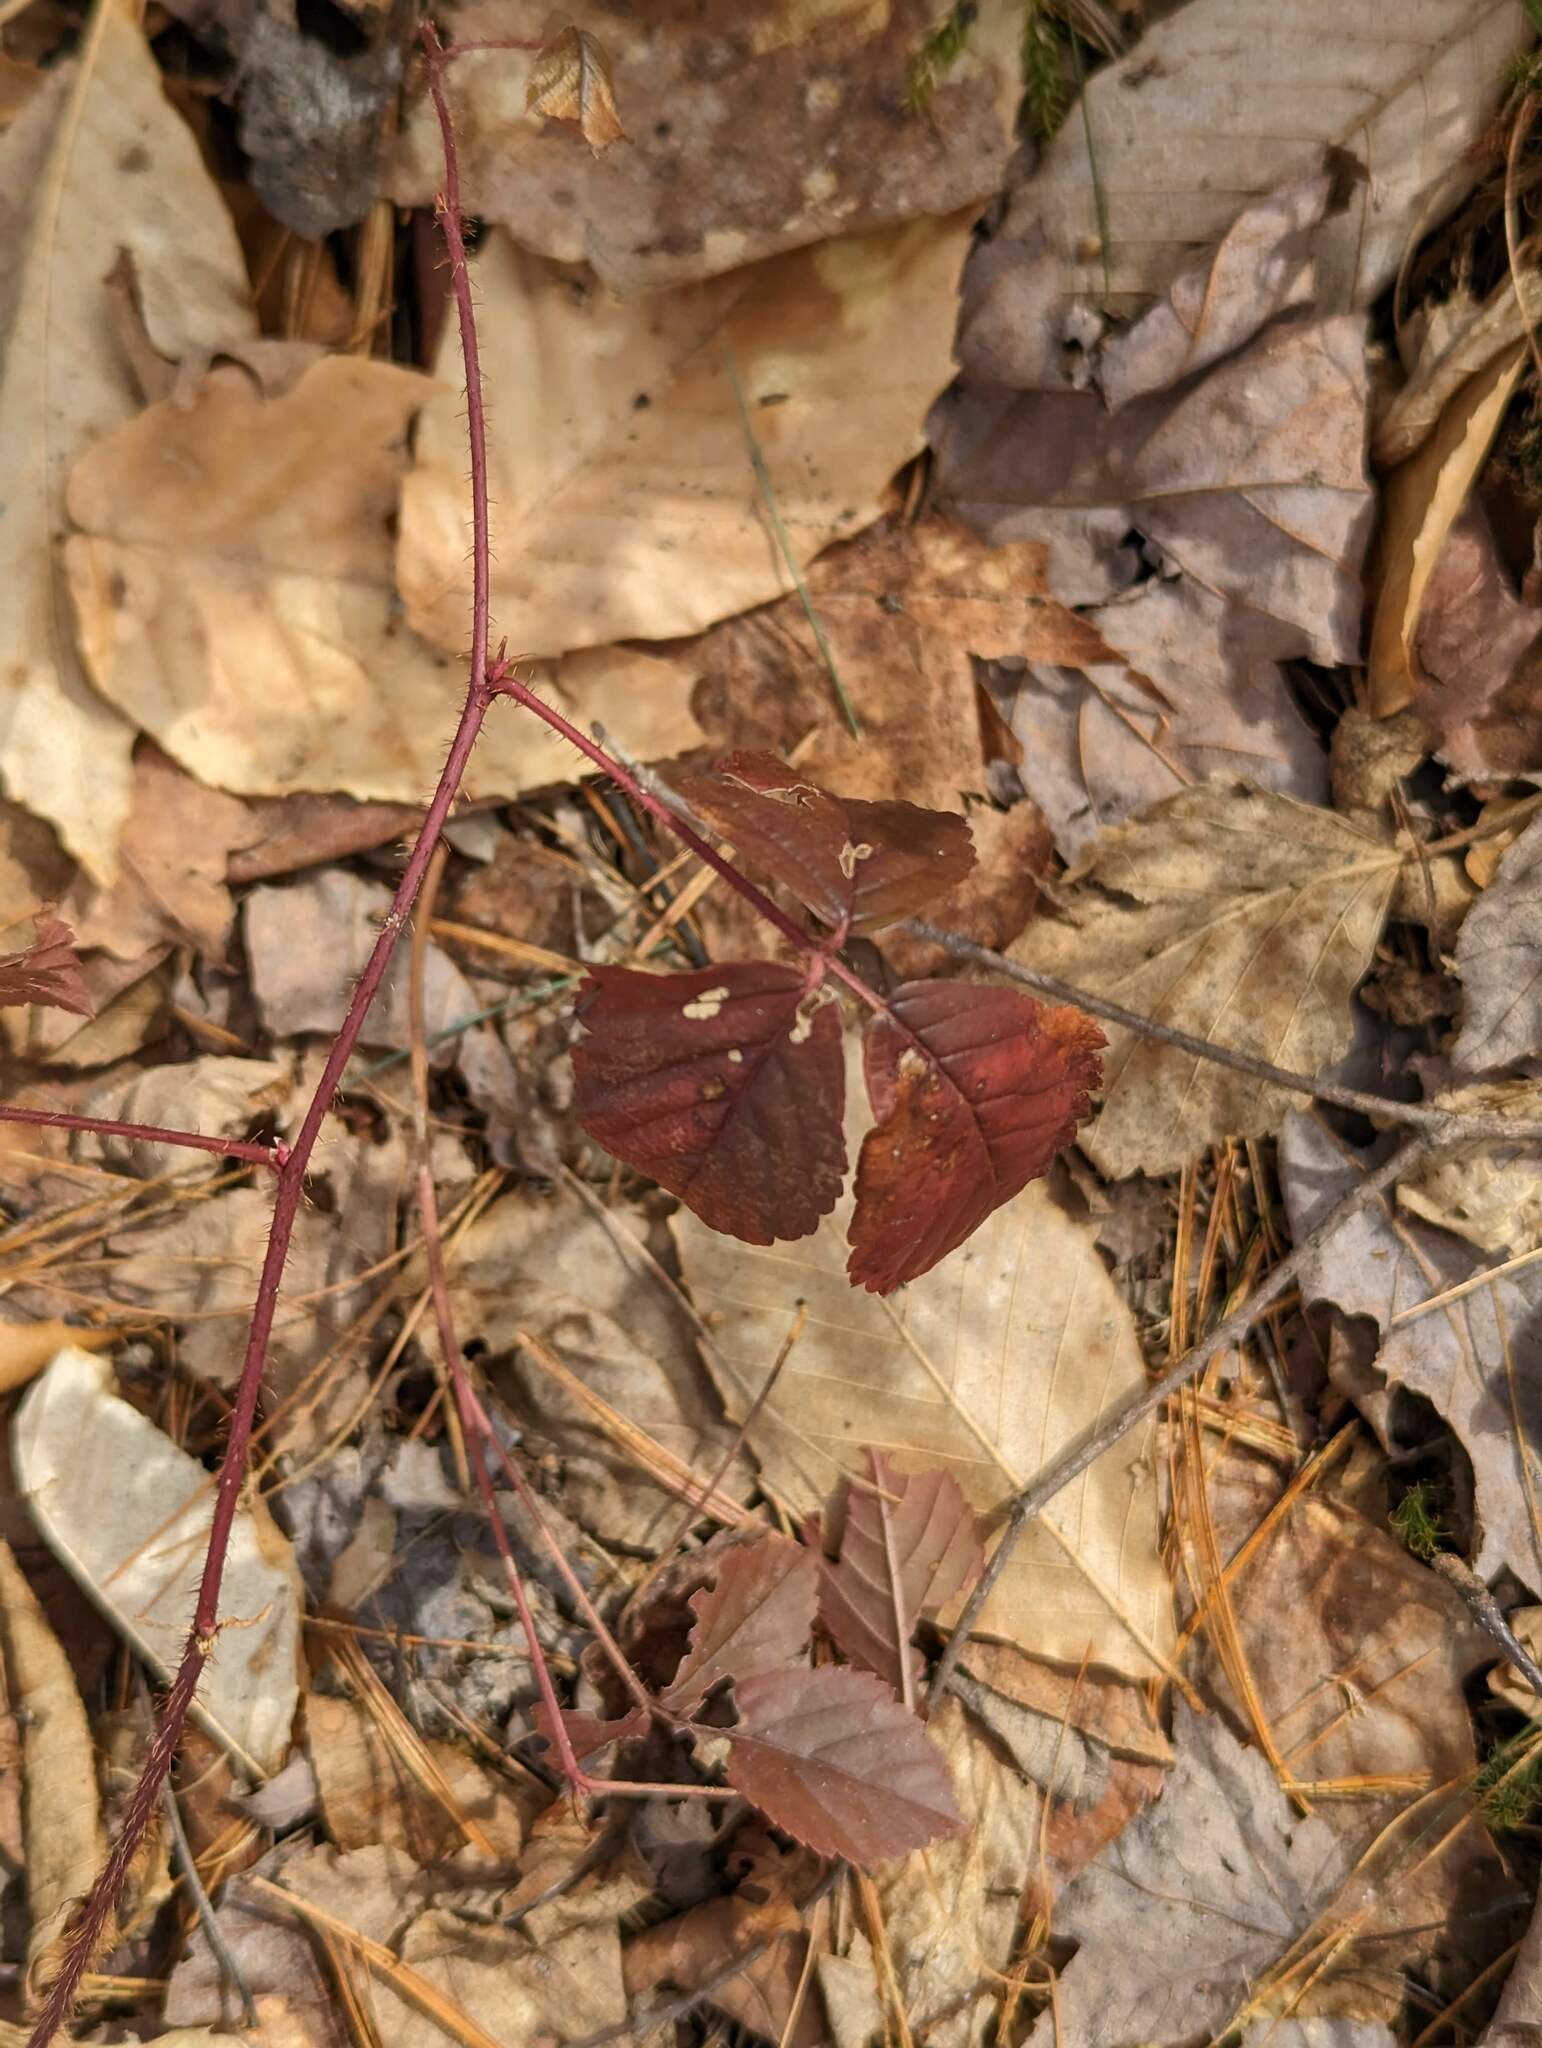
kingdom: Plantae
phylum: Tracheophyta
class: Magnoliopsida
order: Rosales
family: Rosaceae
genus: Rubus
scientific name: Rubus hispidus
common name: Running blackberry
